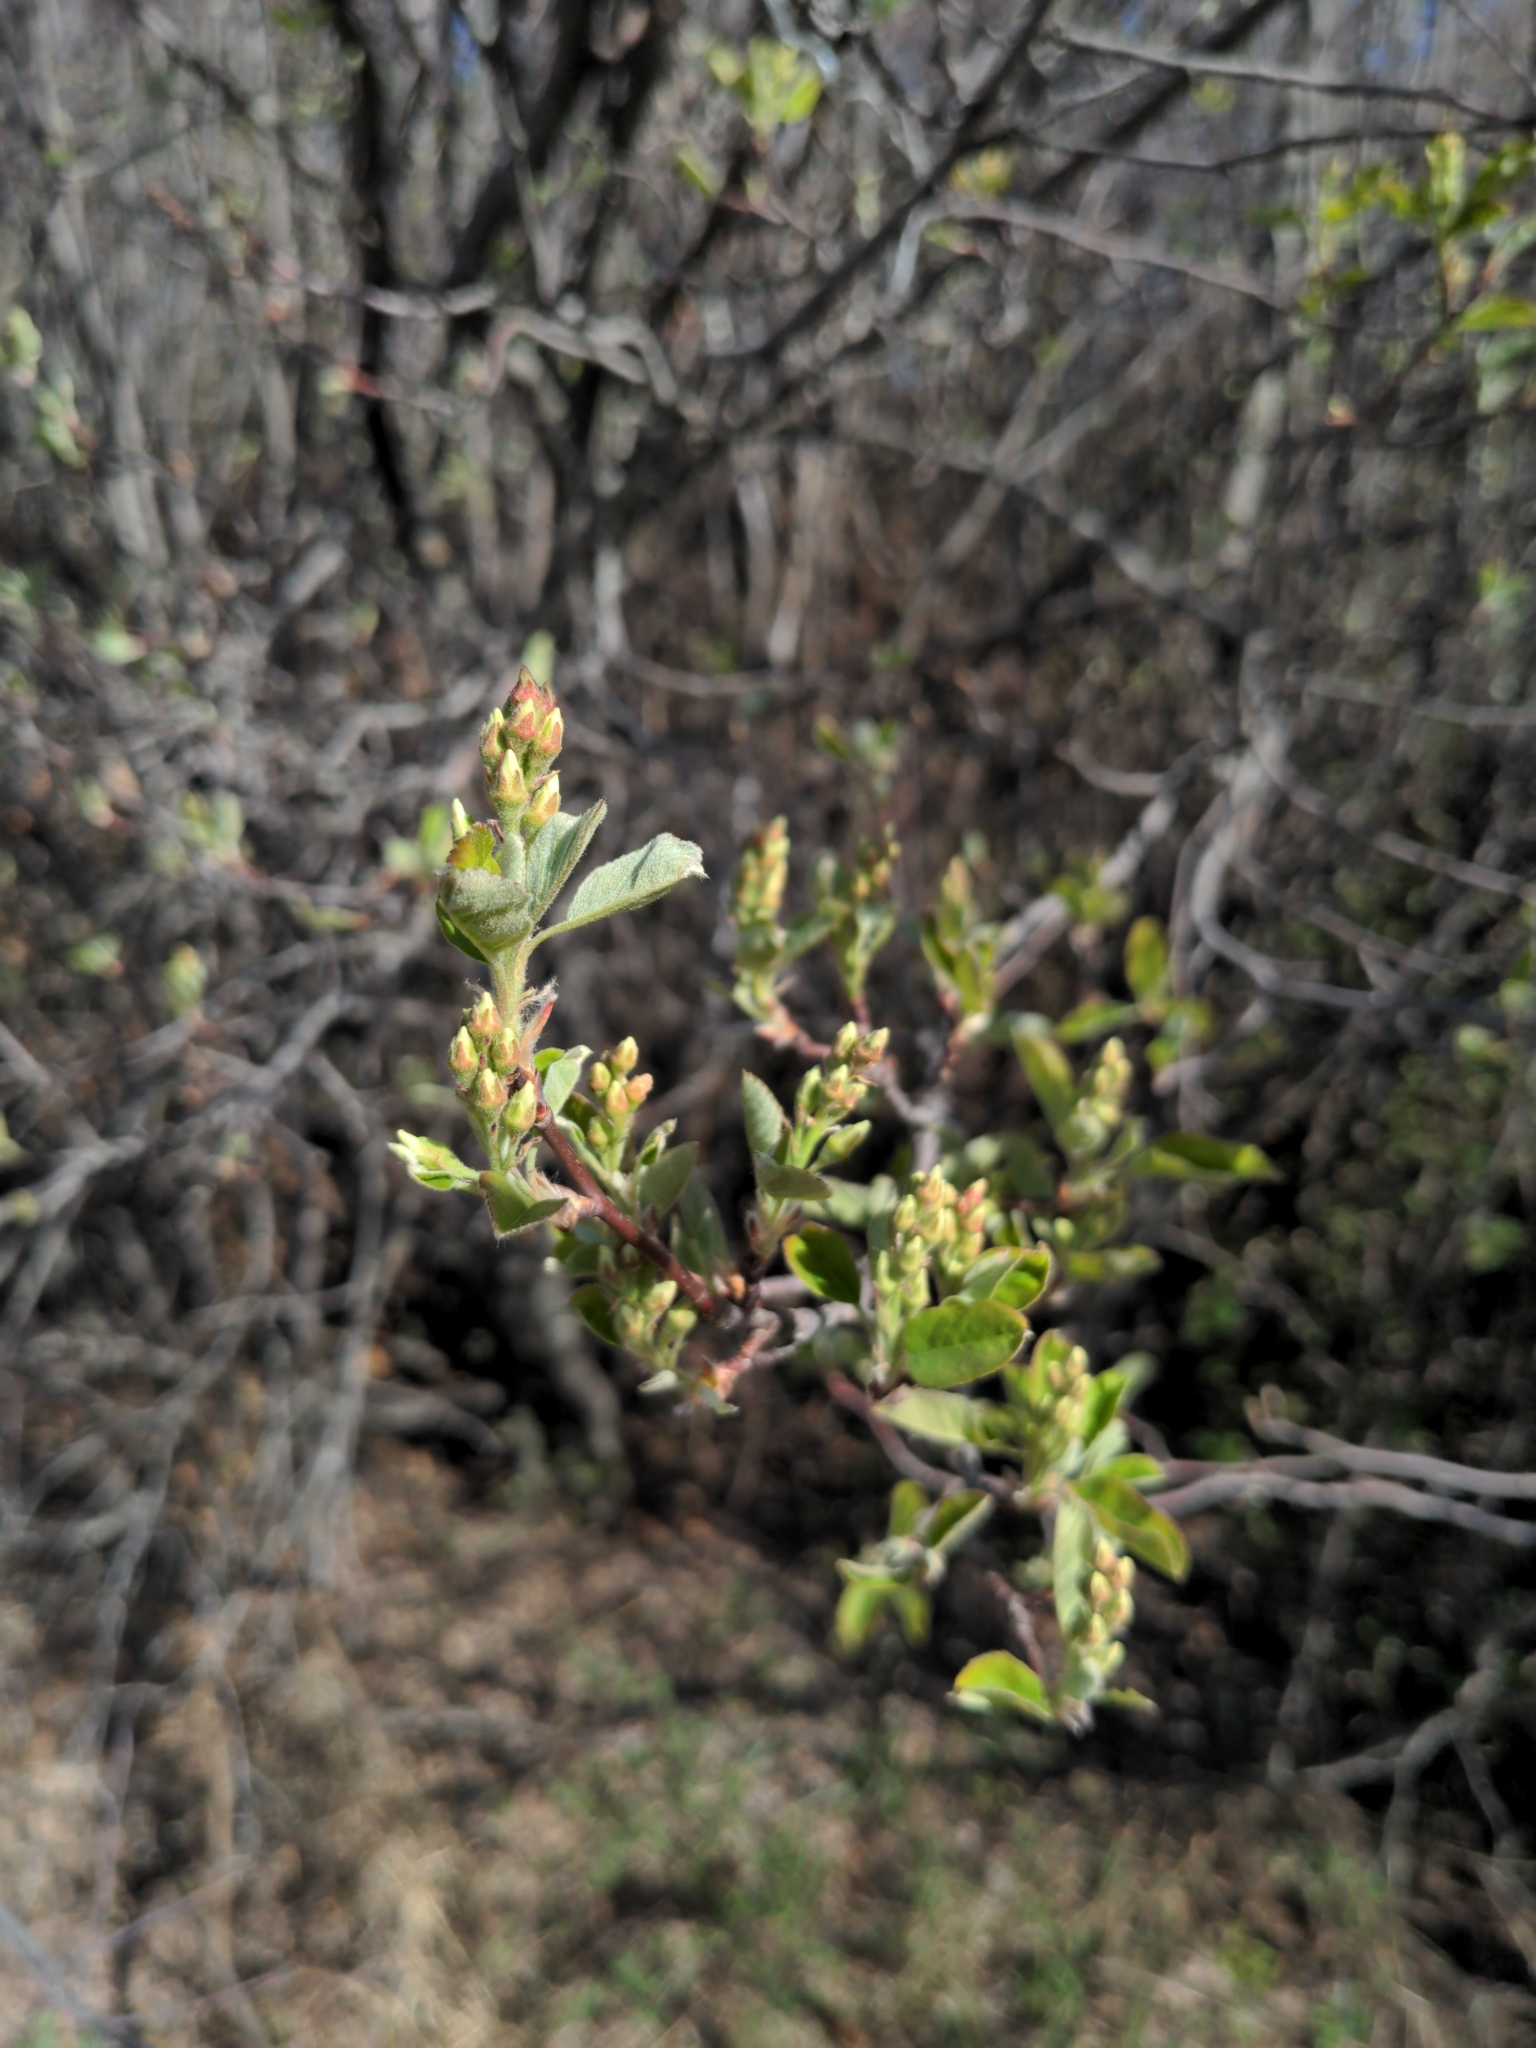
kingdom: Plantae
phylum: Tracheophyta
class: Magnoliopsida
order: Rosales
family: Rosaceae
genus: Amelanchier
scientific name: Amelanchier alnifolia
